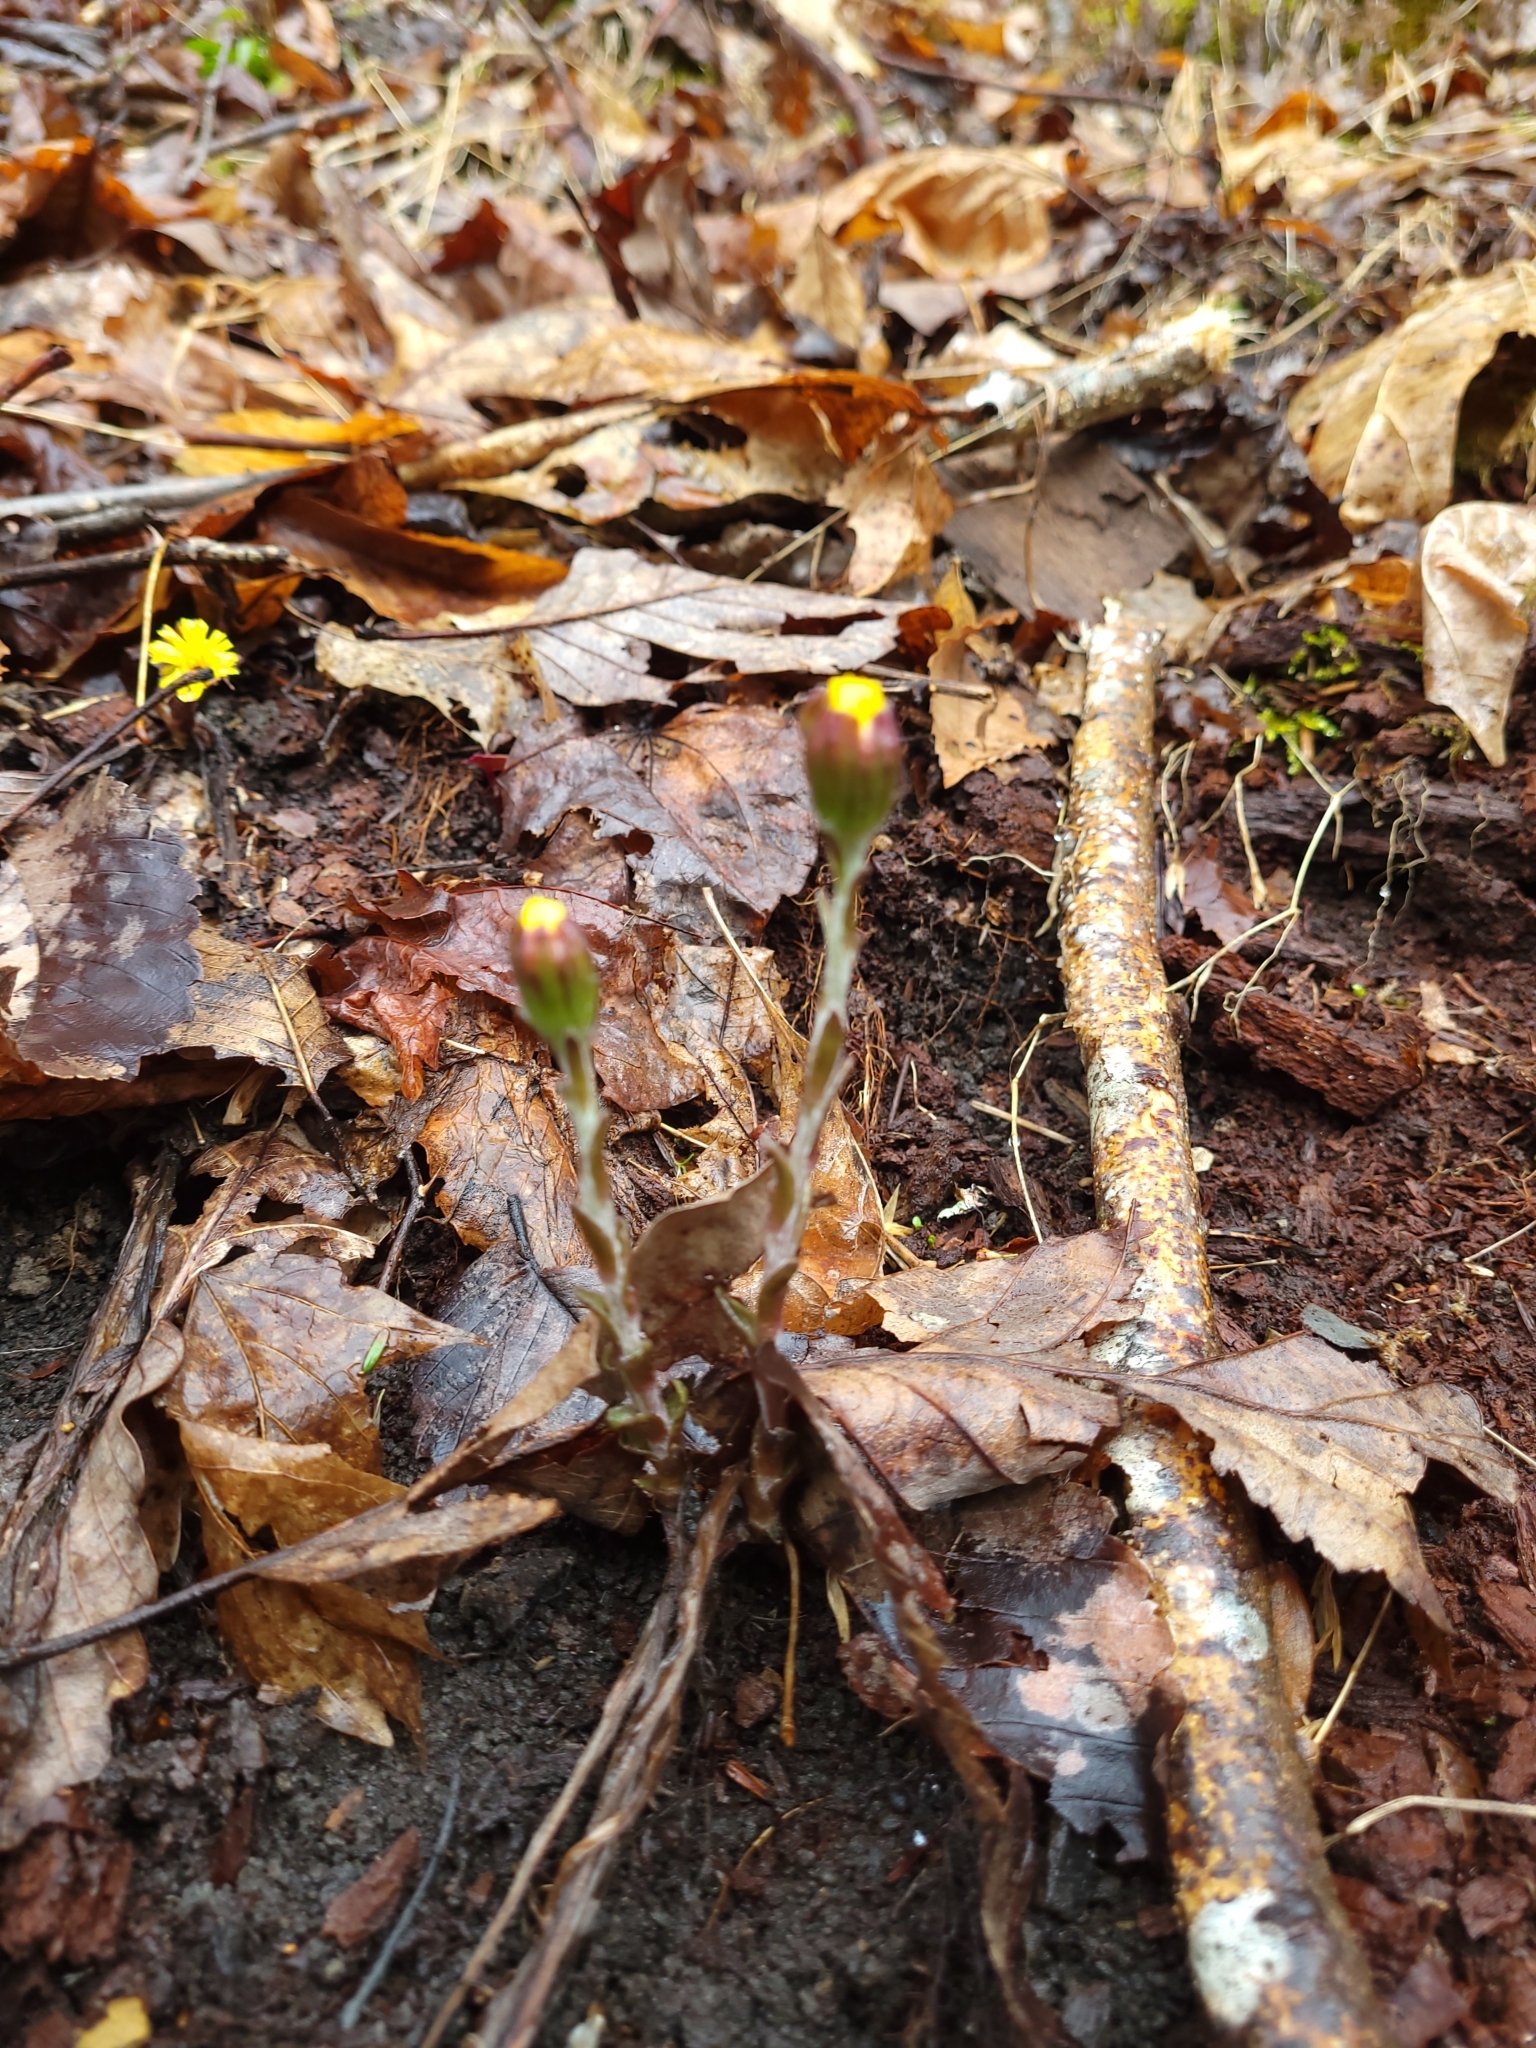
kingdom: Plantae
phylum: Tracheophyta
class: Magnoliopsida
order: Asterales
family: Asteraceae
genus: Tussilago
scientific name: Tussilago farfara
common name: Coltsfoot
